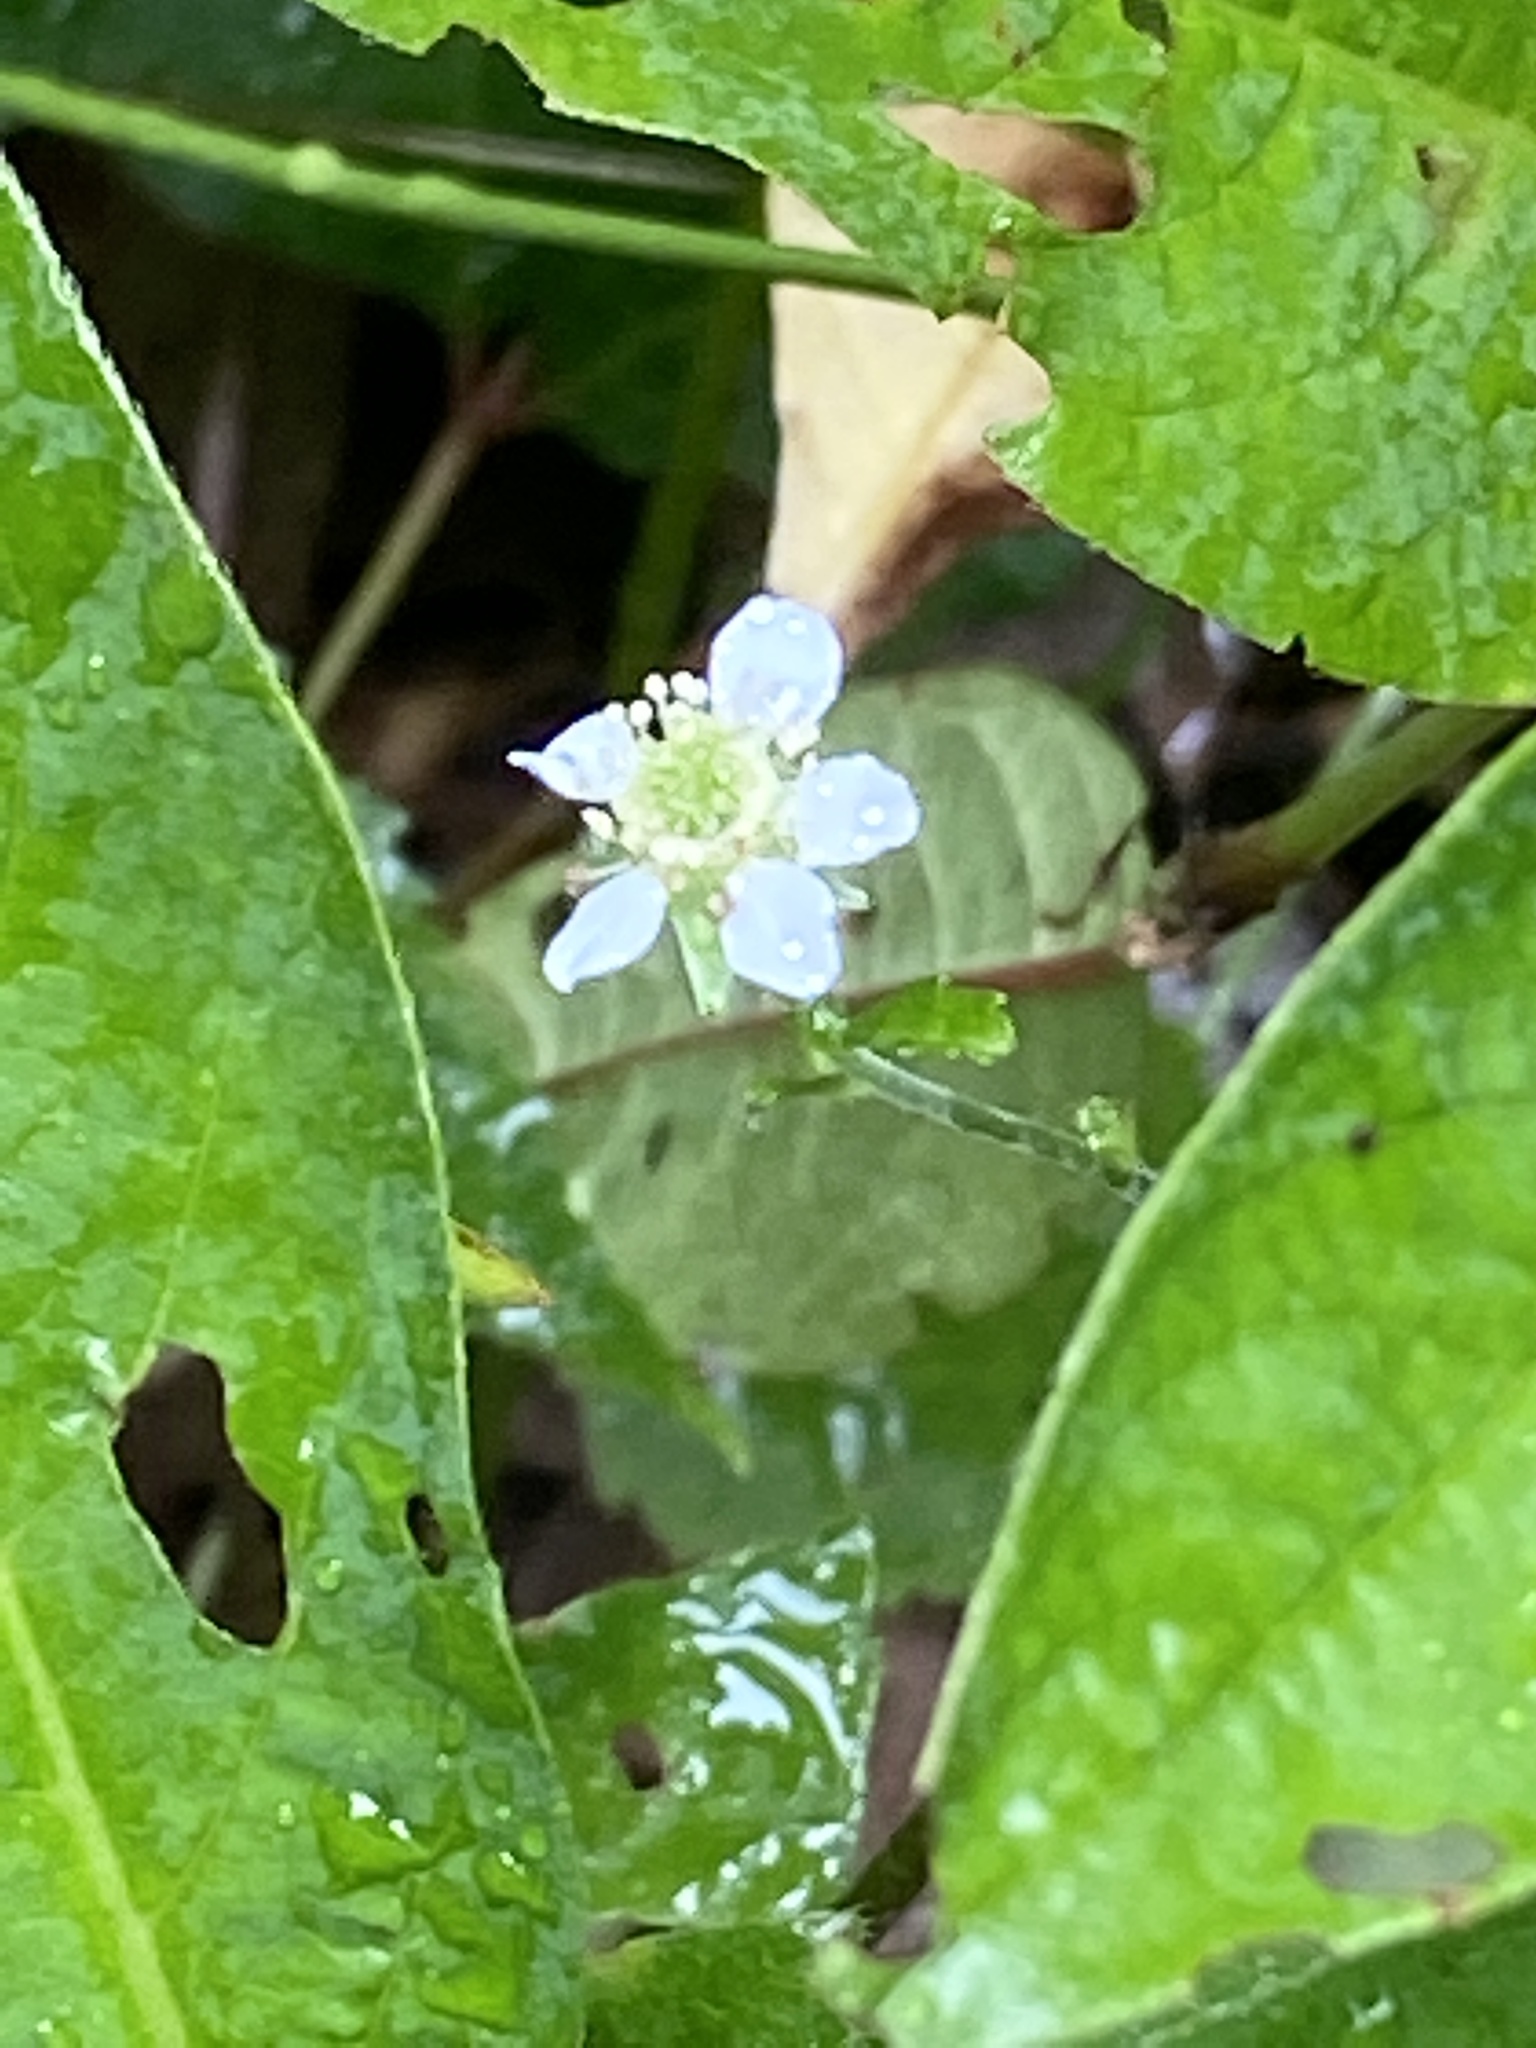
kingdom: Plantae
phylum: Tracheophyta
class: Magnoliopsida
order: Rosales
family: Rosaceae
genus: Geum
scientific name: Geum canadense
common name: White avens
